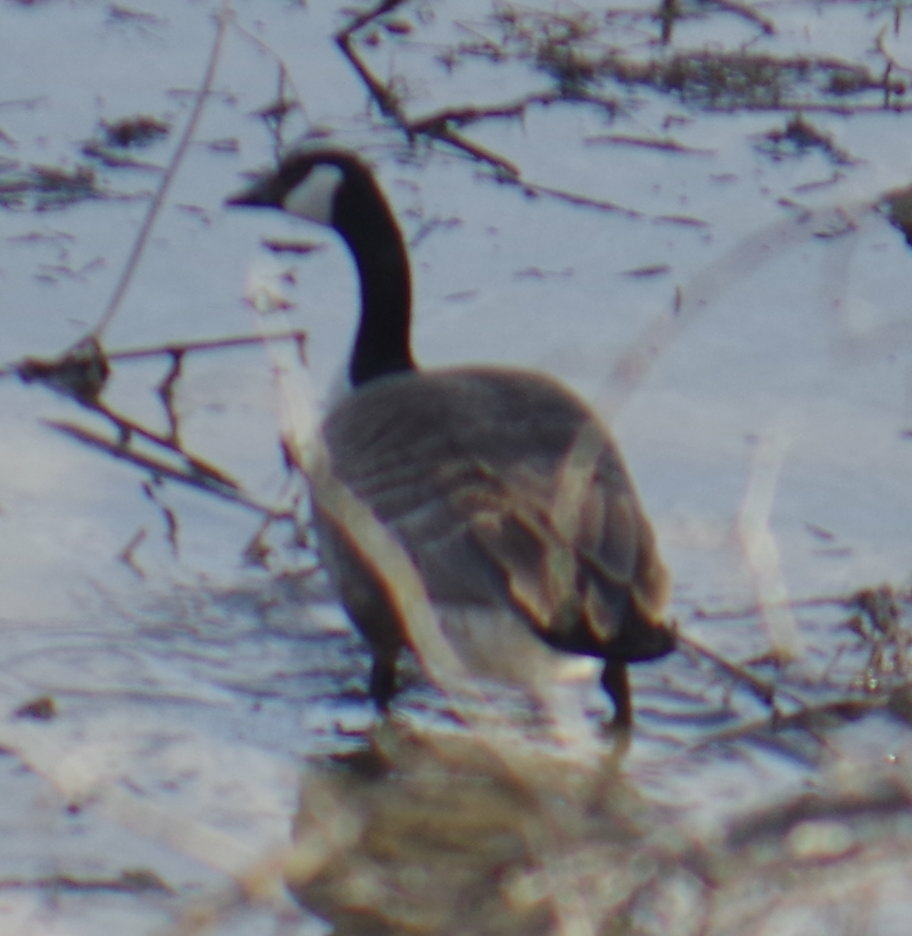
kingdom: Animalia
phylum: Chordata
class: Aves
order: Anseriformes
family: Anatidae
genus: Branta
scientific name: Branta canadensis
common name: Canada goose
